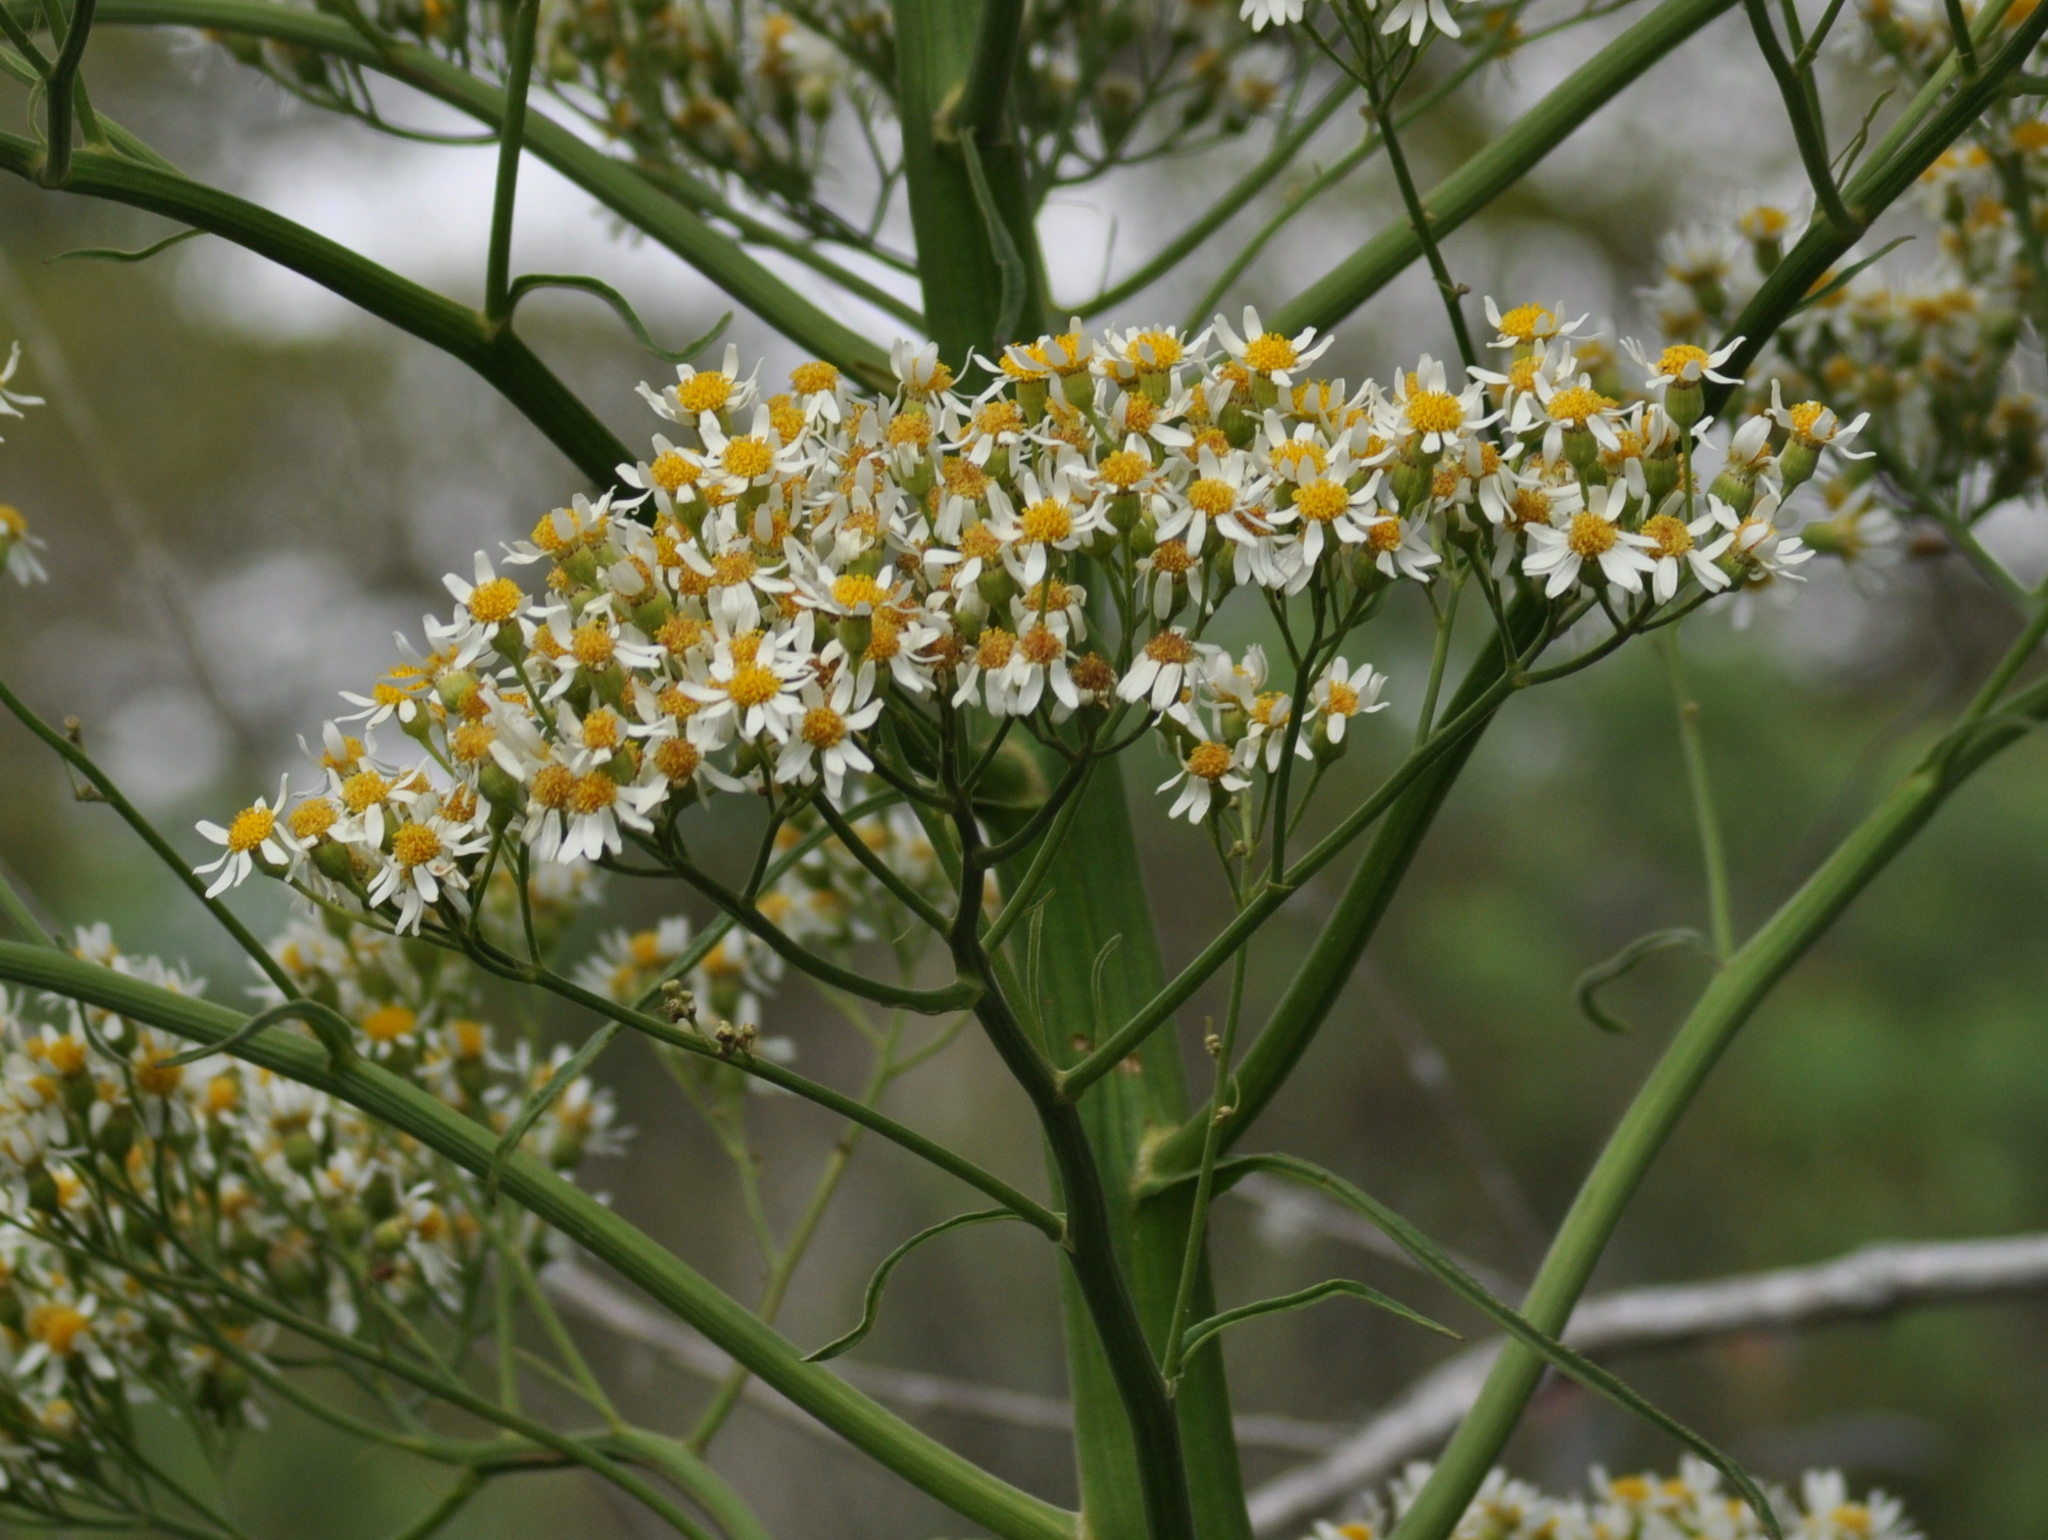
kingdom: Plantae
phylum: Tracheophyta
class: Magnoliopsida
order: Asterales
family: Asteraceae
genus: Senecio
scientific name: Senecio mattfeldianus
